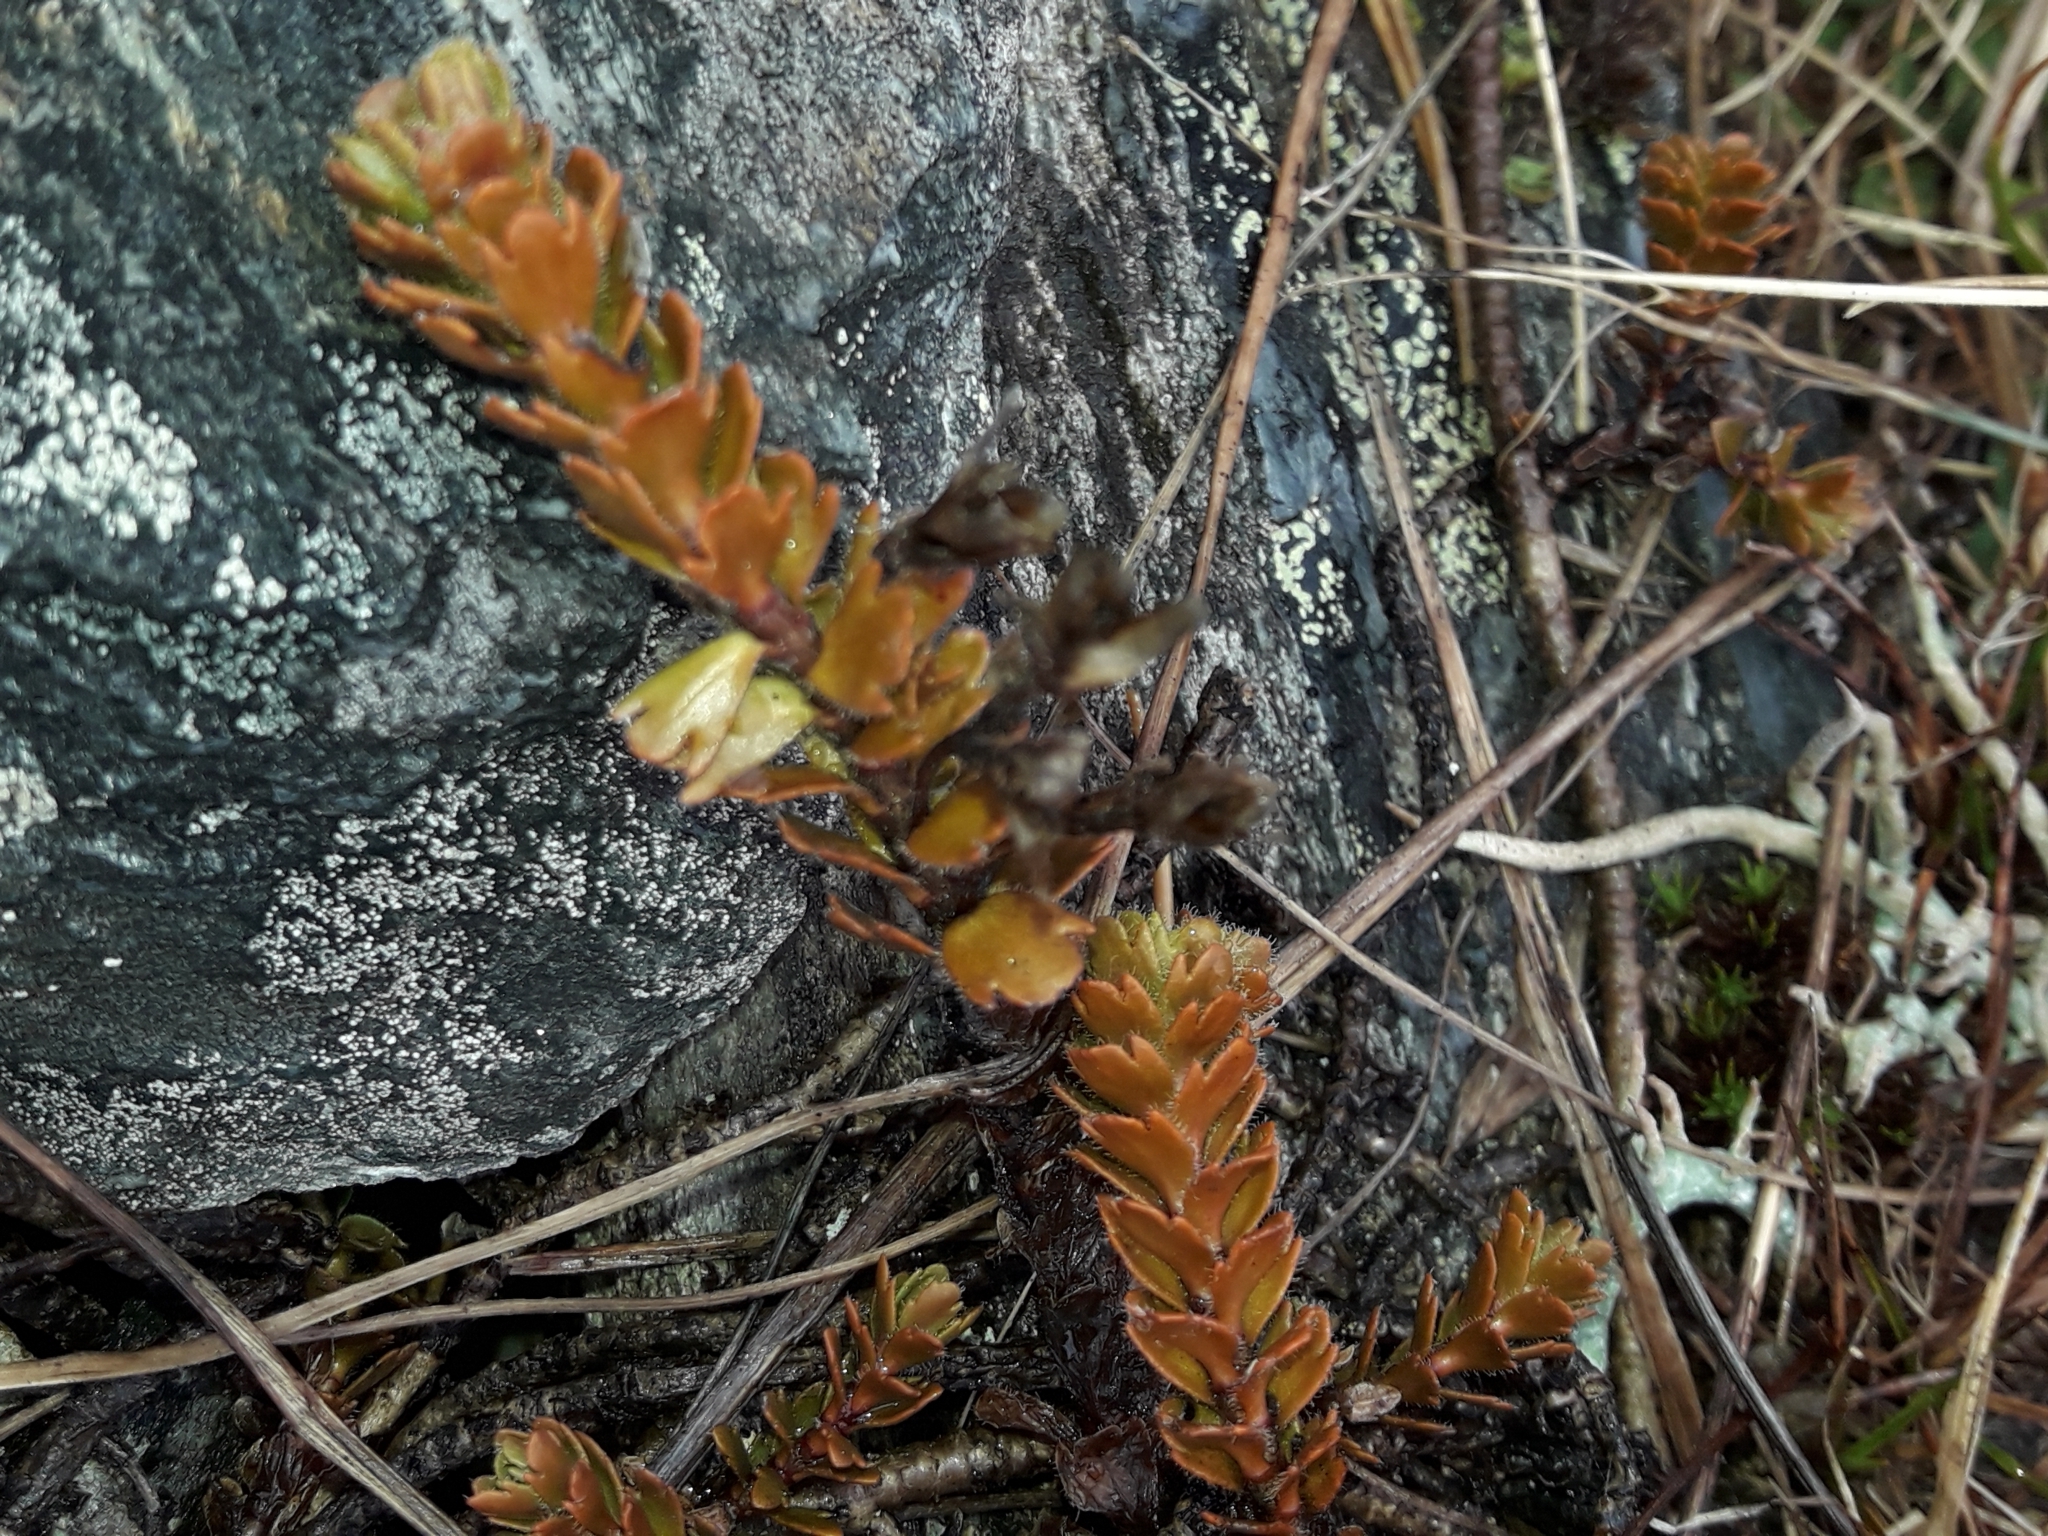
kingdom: Plantae
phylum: Tracheophyta
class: Magnoliopsida
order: Lamiales
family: Plantaginaceae
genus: Veronica
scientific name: Veronica trifida
